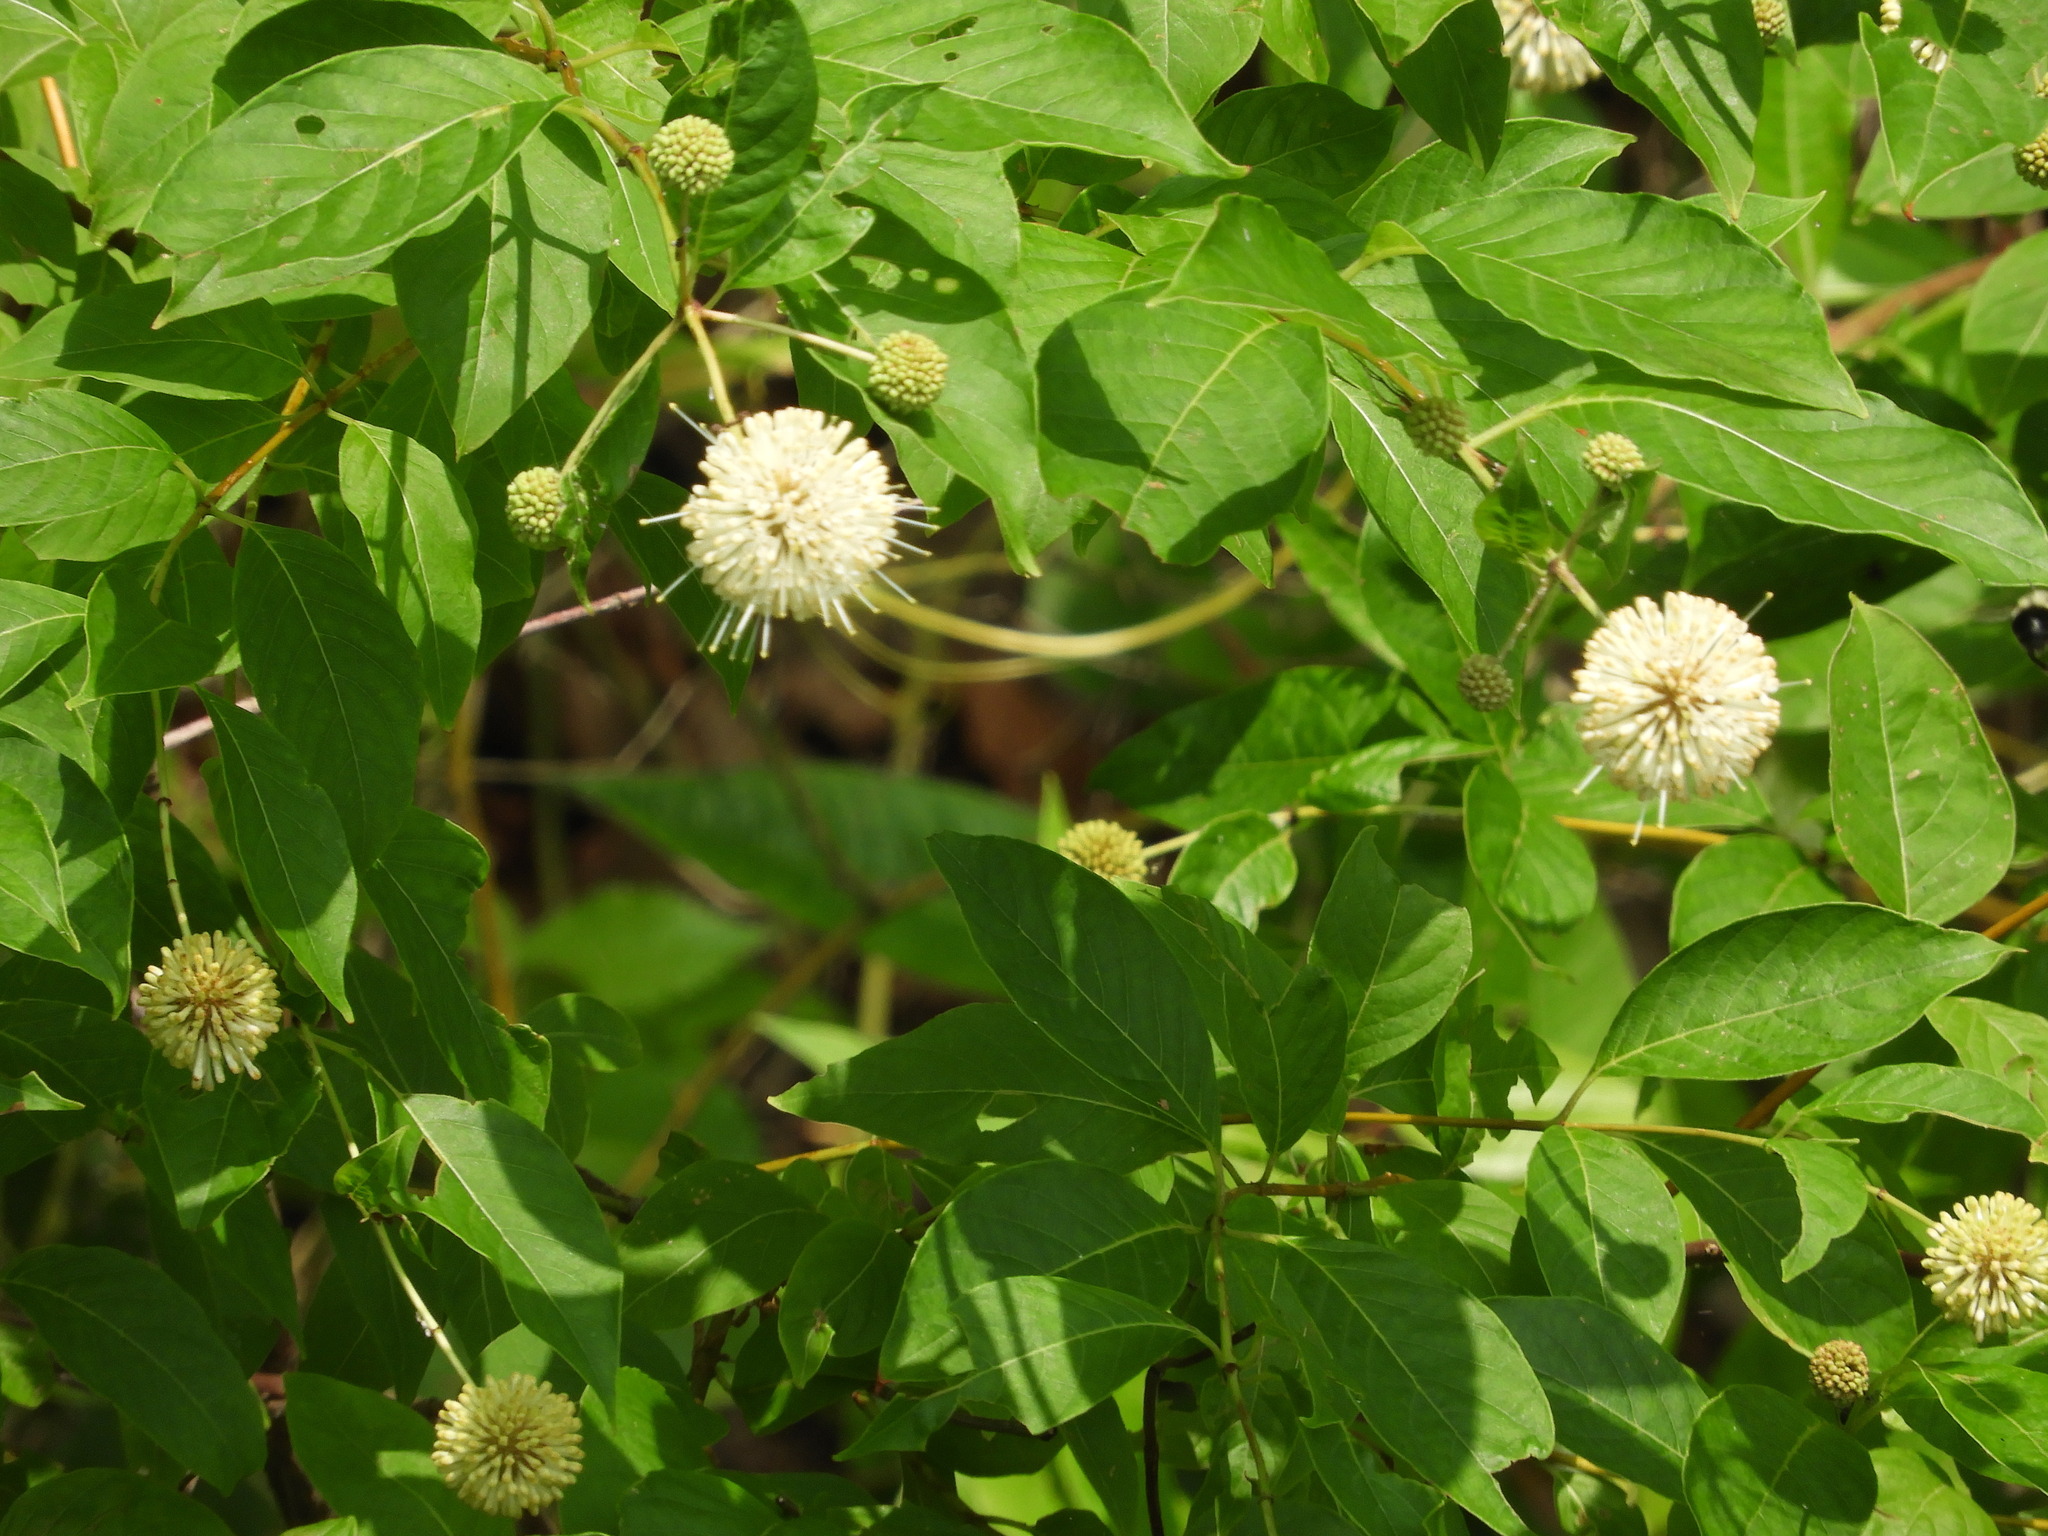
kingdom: Plantae
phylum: Tracheophyta
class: Magnoliopsida
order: Gentianales
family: Rubiaceae
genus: Cephalanthus
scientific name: Cephalanthus occidentalis
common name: Button-willow
